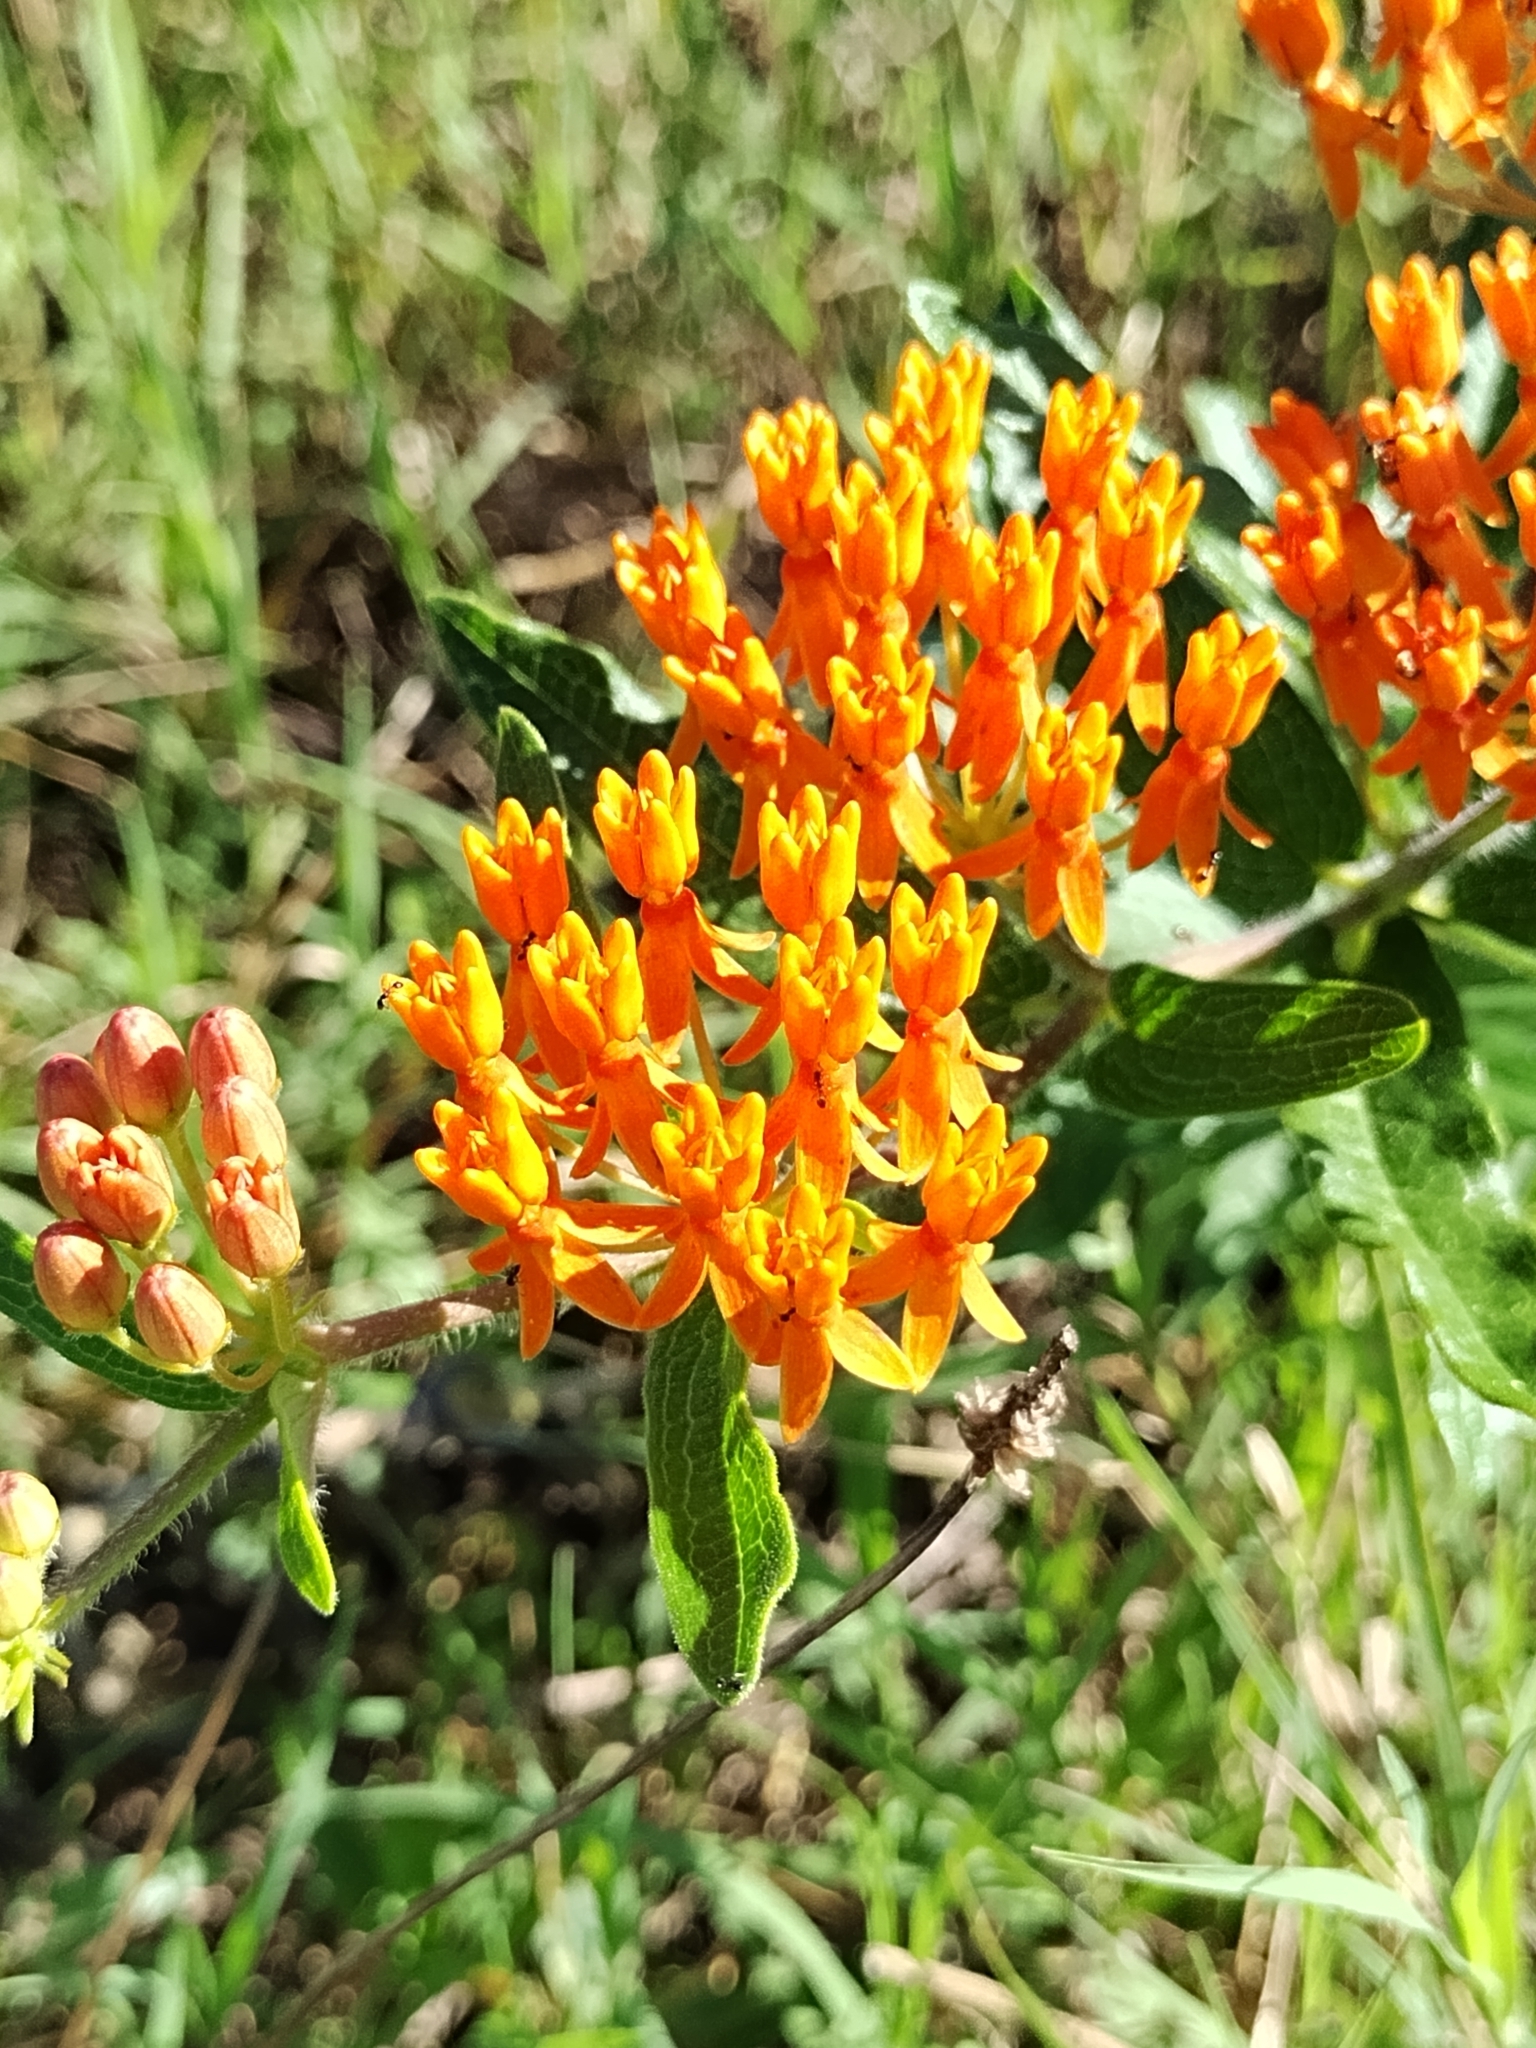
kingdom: Plantae
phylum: Tracheophyta
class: Magnoliopsida
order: Gentianales
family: Apocynaceae
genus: Asclepias
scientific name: Asclepias tuberosa
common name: Butterfly milkweed
